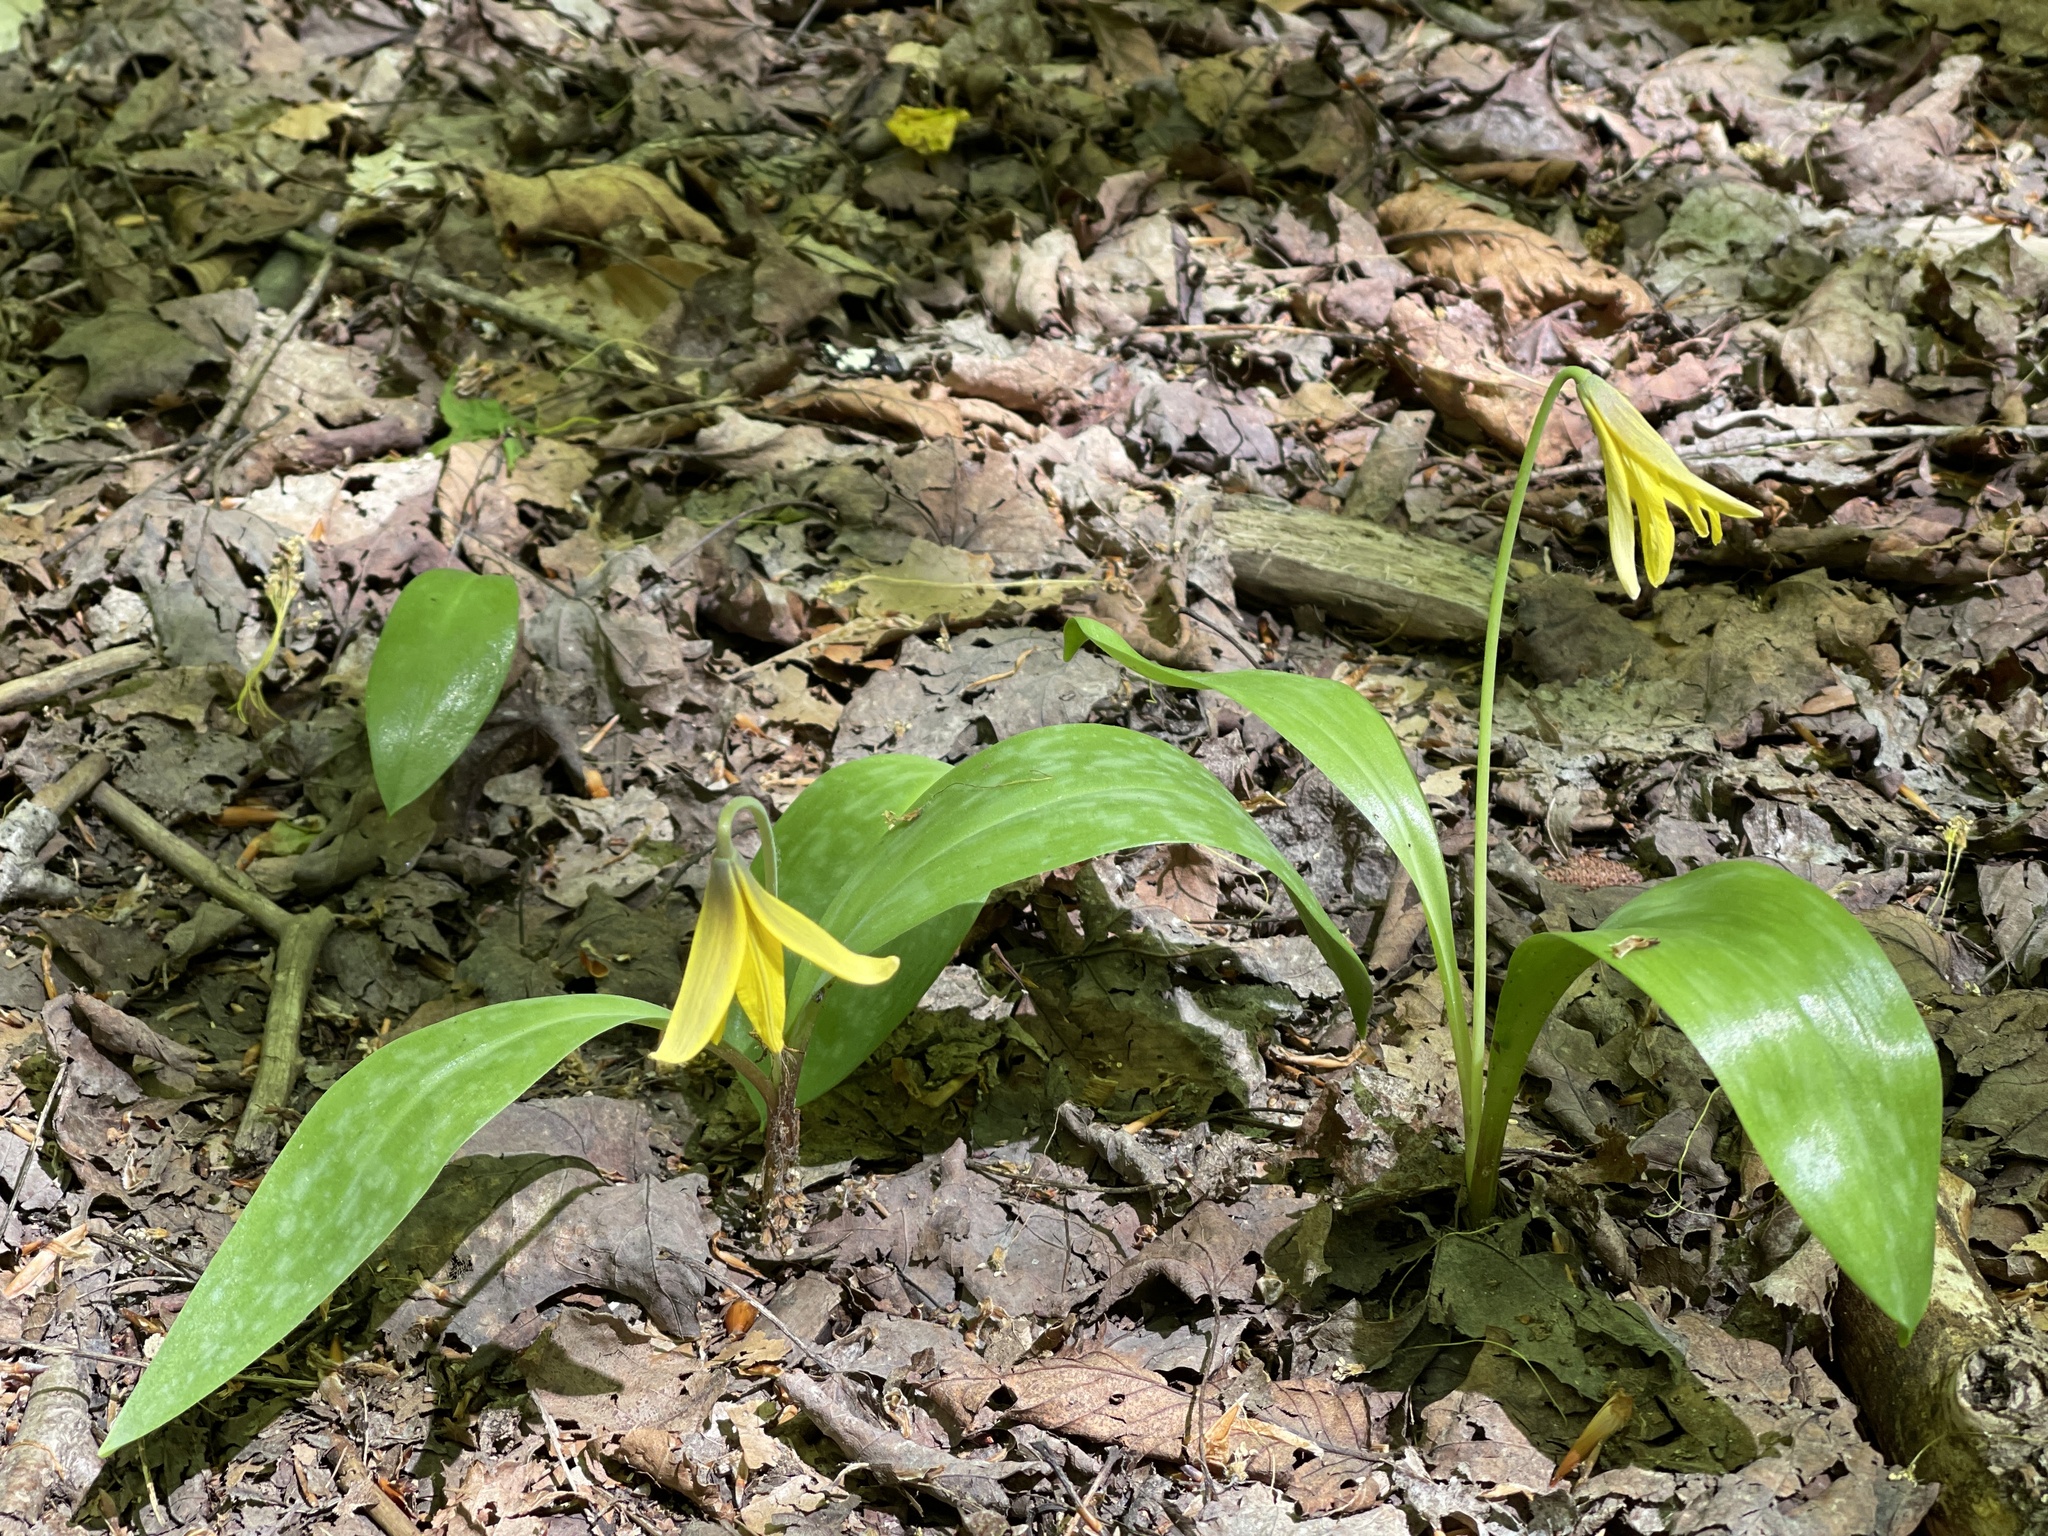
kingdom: Plantae
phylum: Tracheophyta
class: Liliopsida
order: Liliales
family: Liliaceae
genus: Erythronium
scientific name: Erythronium americanum
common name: Yellow adder's-tongue
